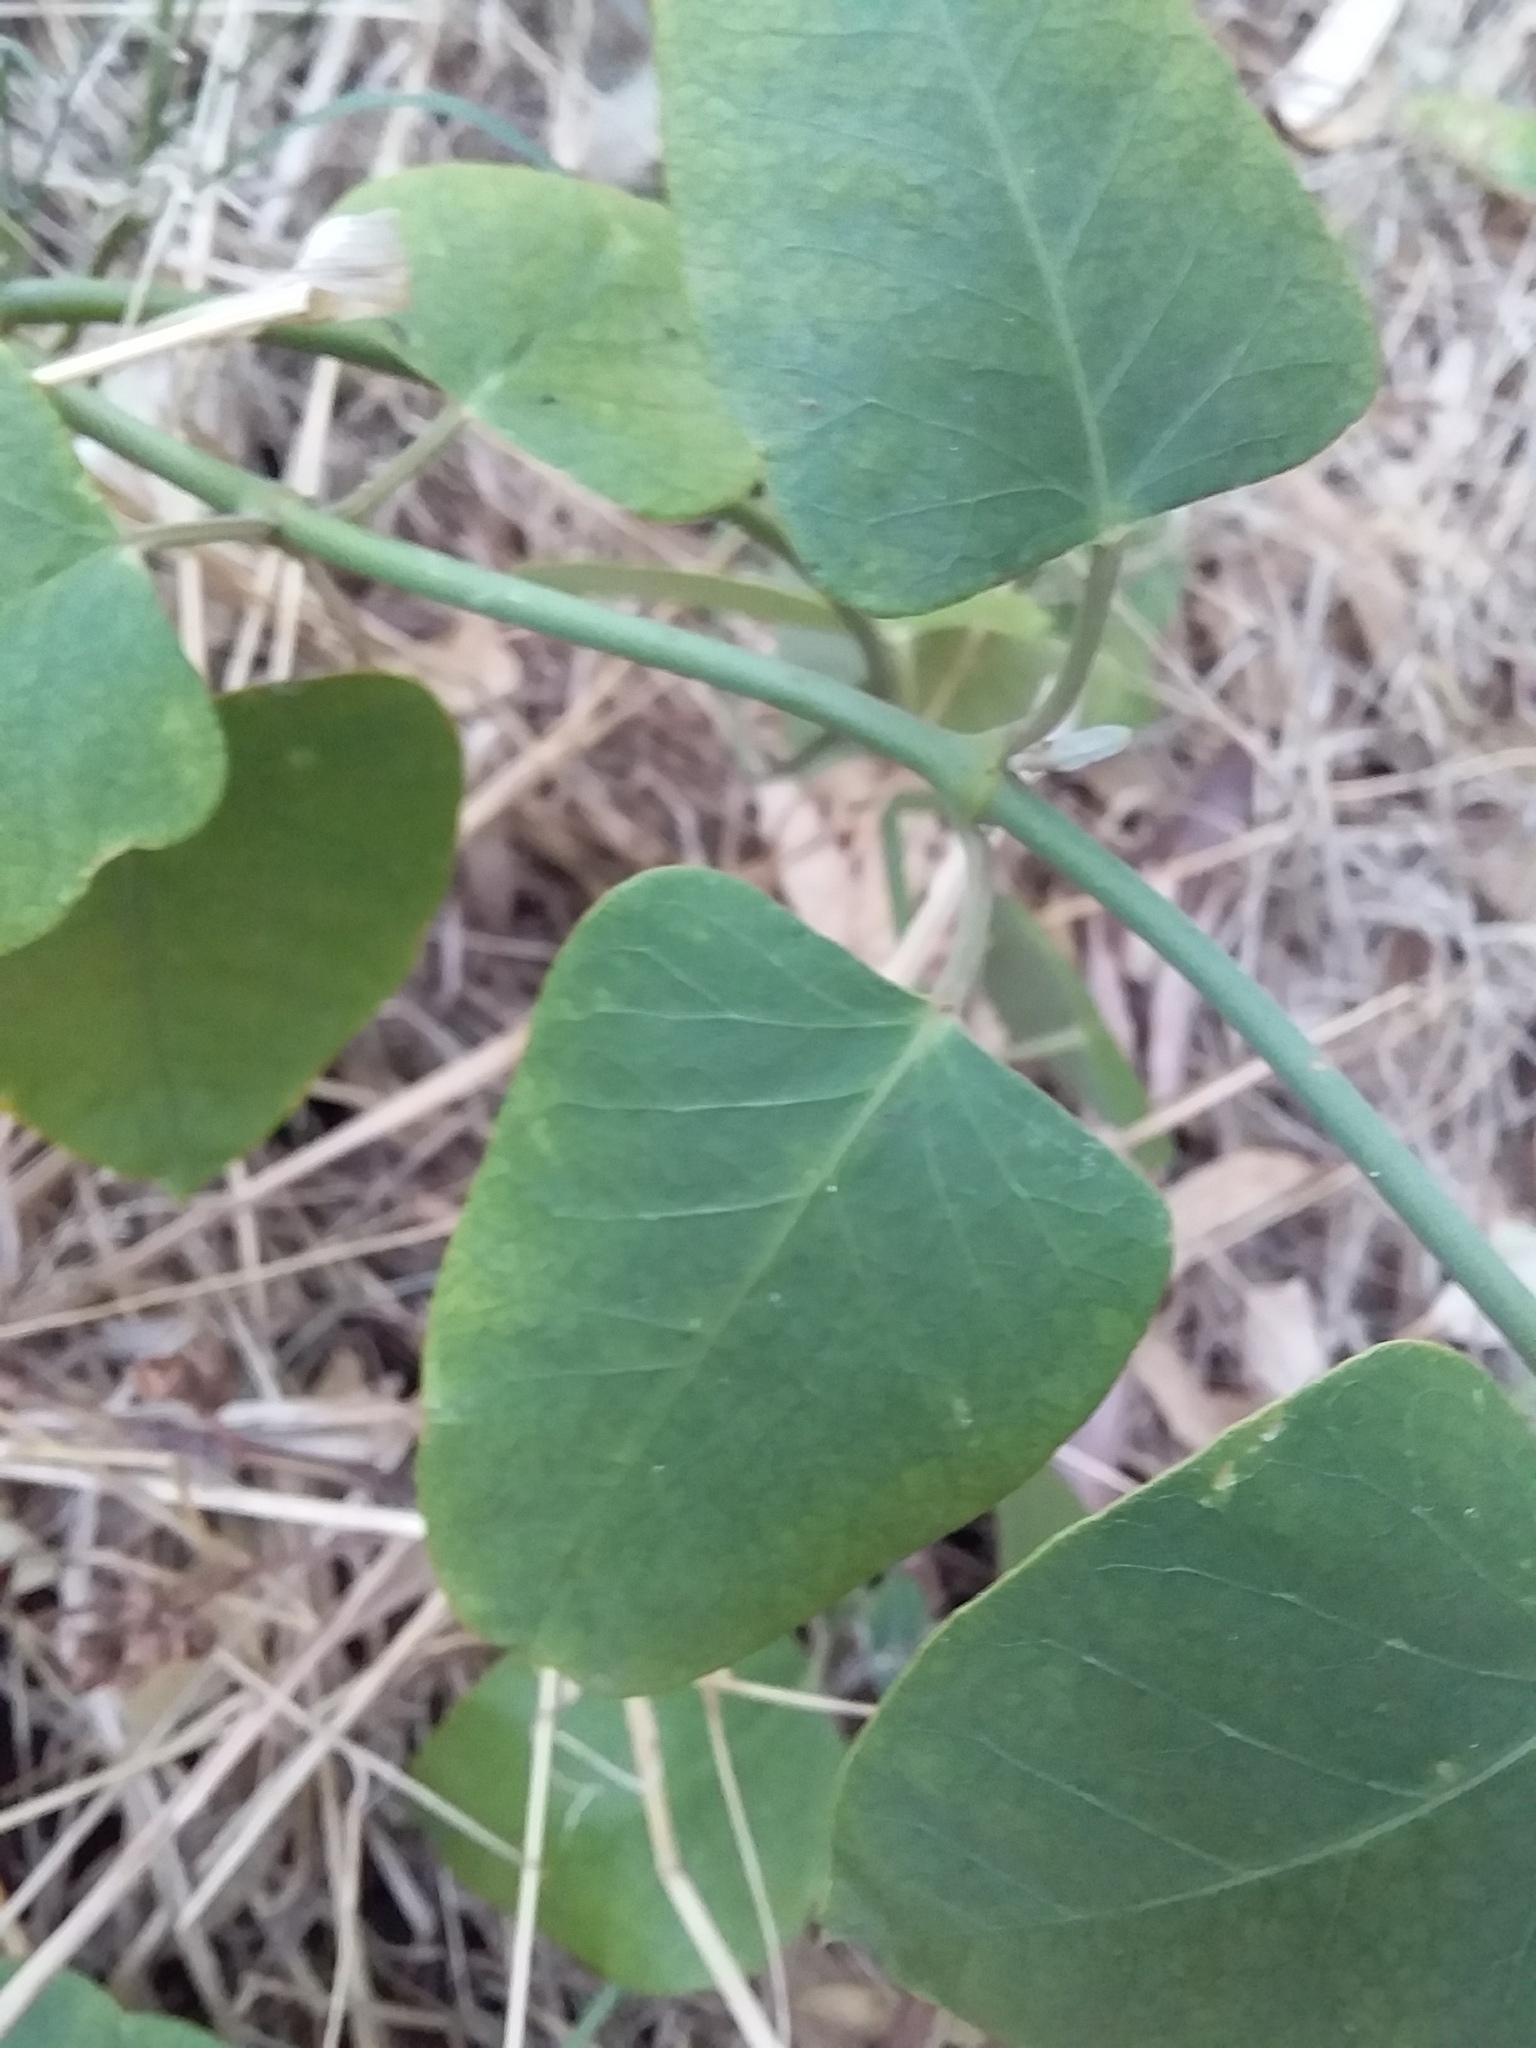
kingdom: Plantae
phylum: Tracheophyta
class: Magnoliopsida
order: Gentianales
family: Apocynaceae
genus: Araujia
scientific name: Araujia sericifera
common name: White bladderflower
